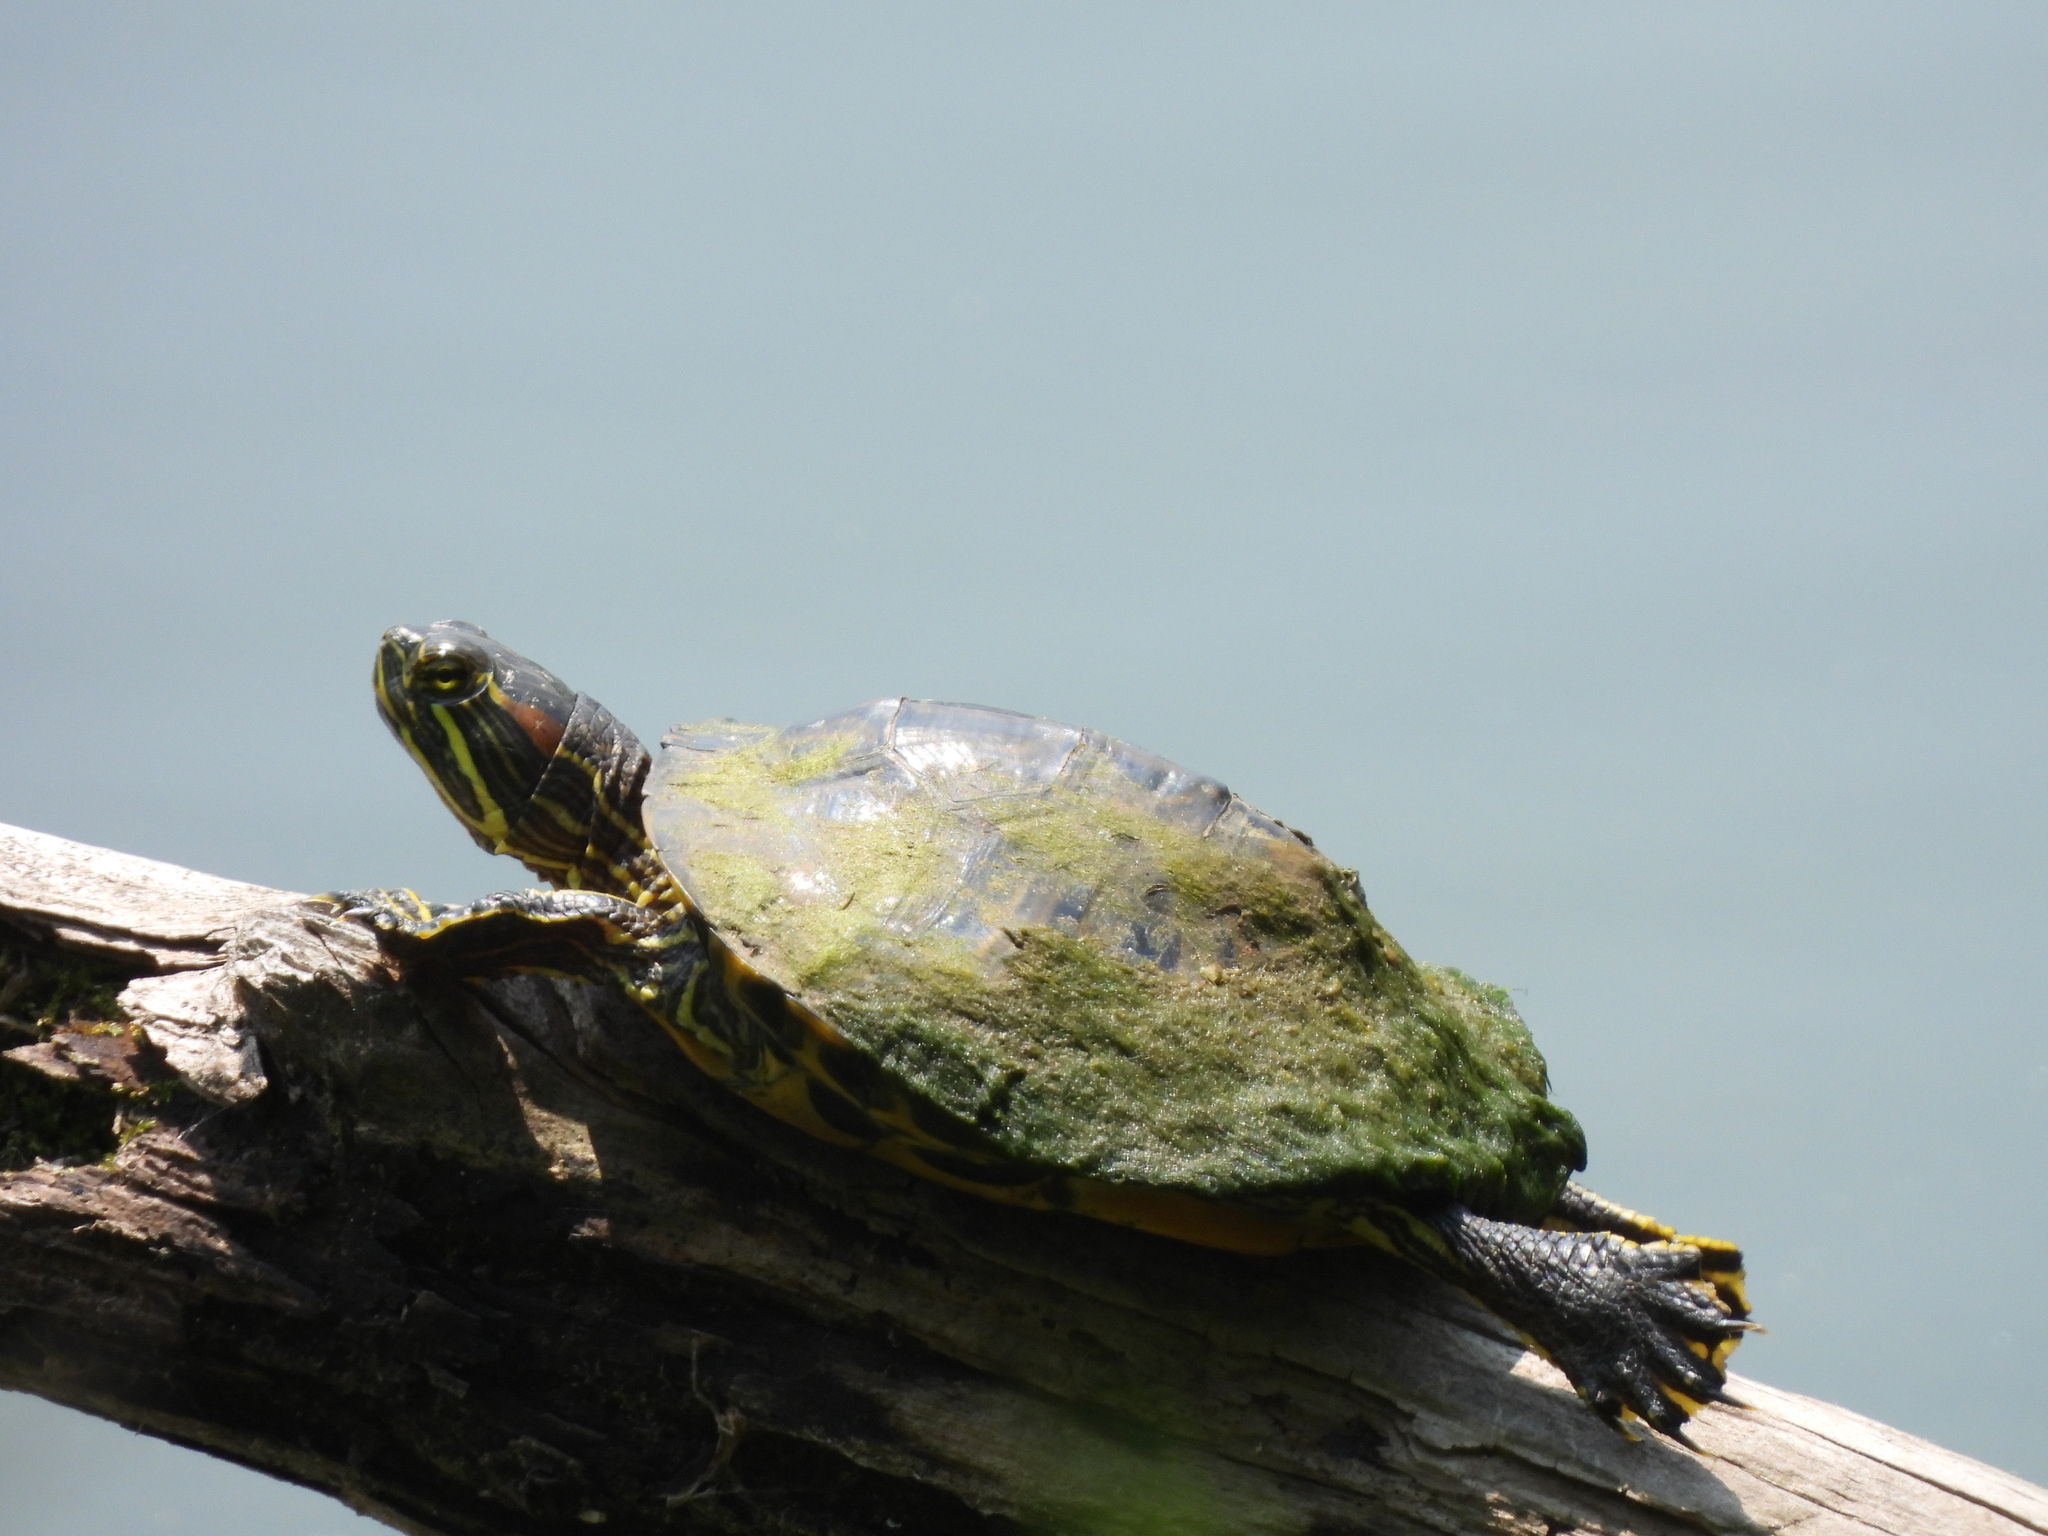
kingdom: Animalia
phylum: Chordata
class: Testudines
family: Emydidae
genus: Trachemys
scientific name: Trachemys scripta
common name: Slider
